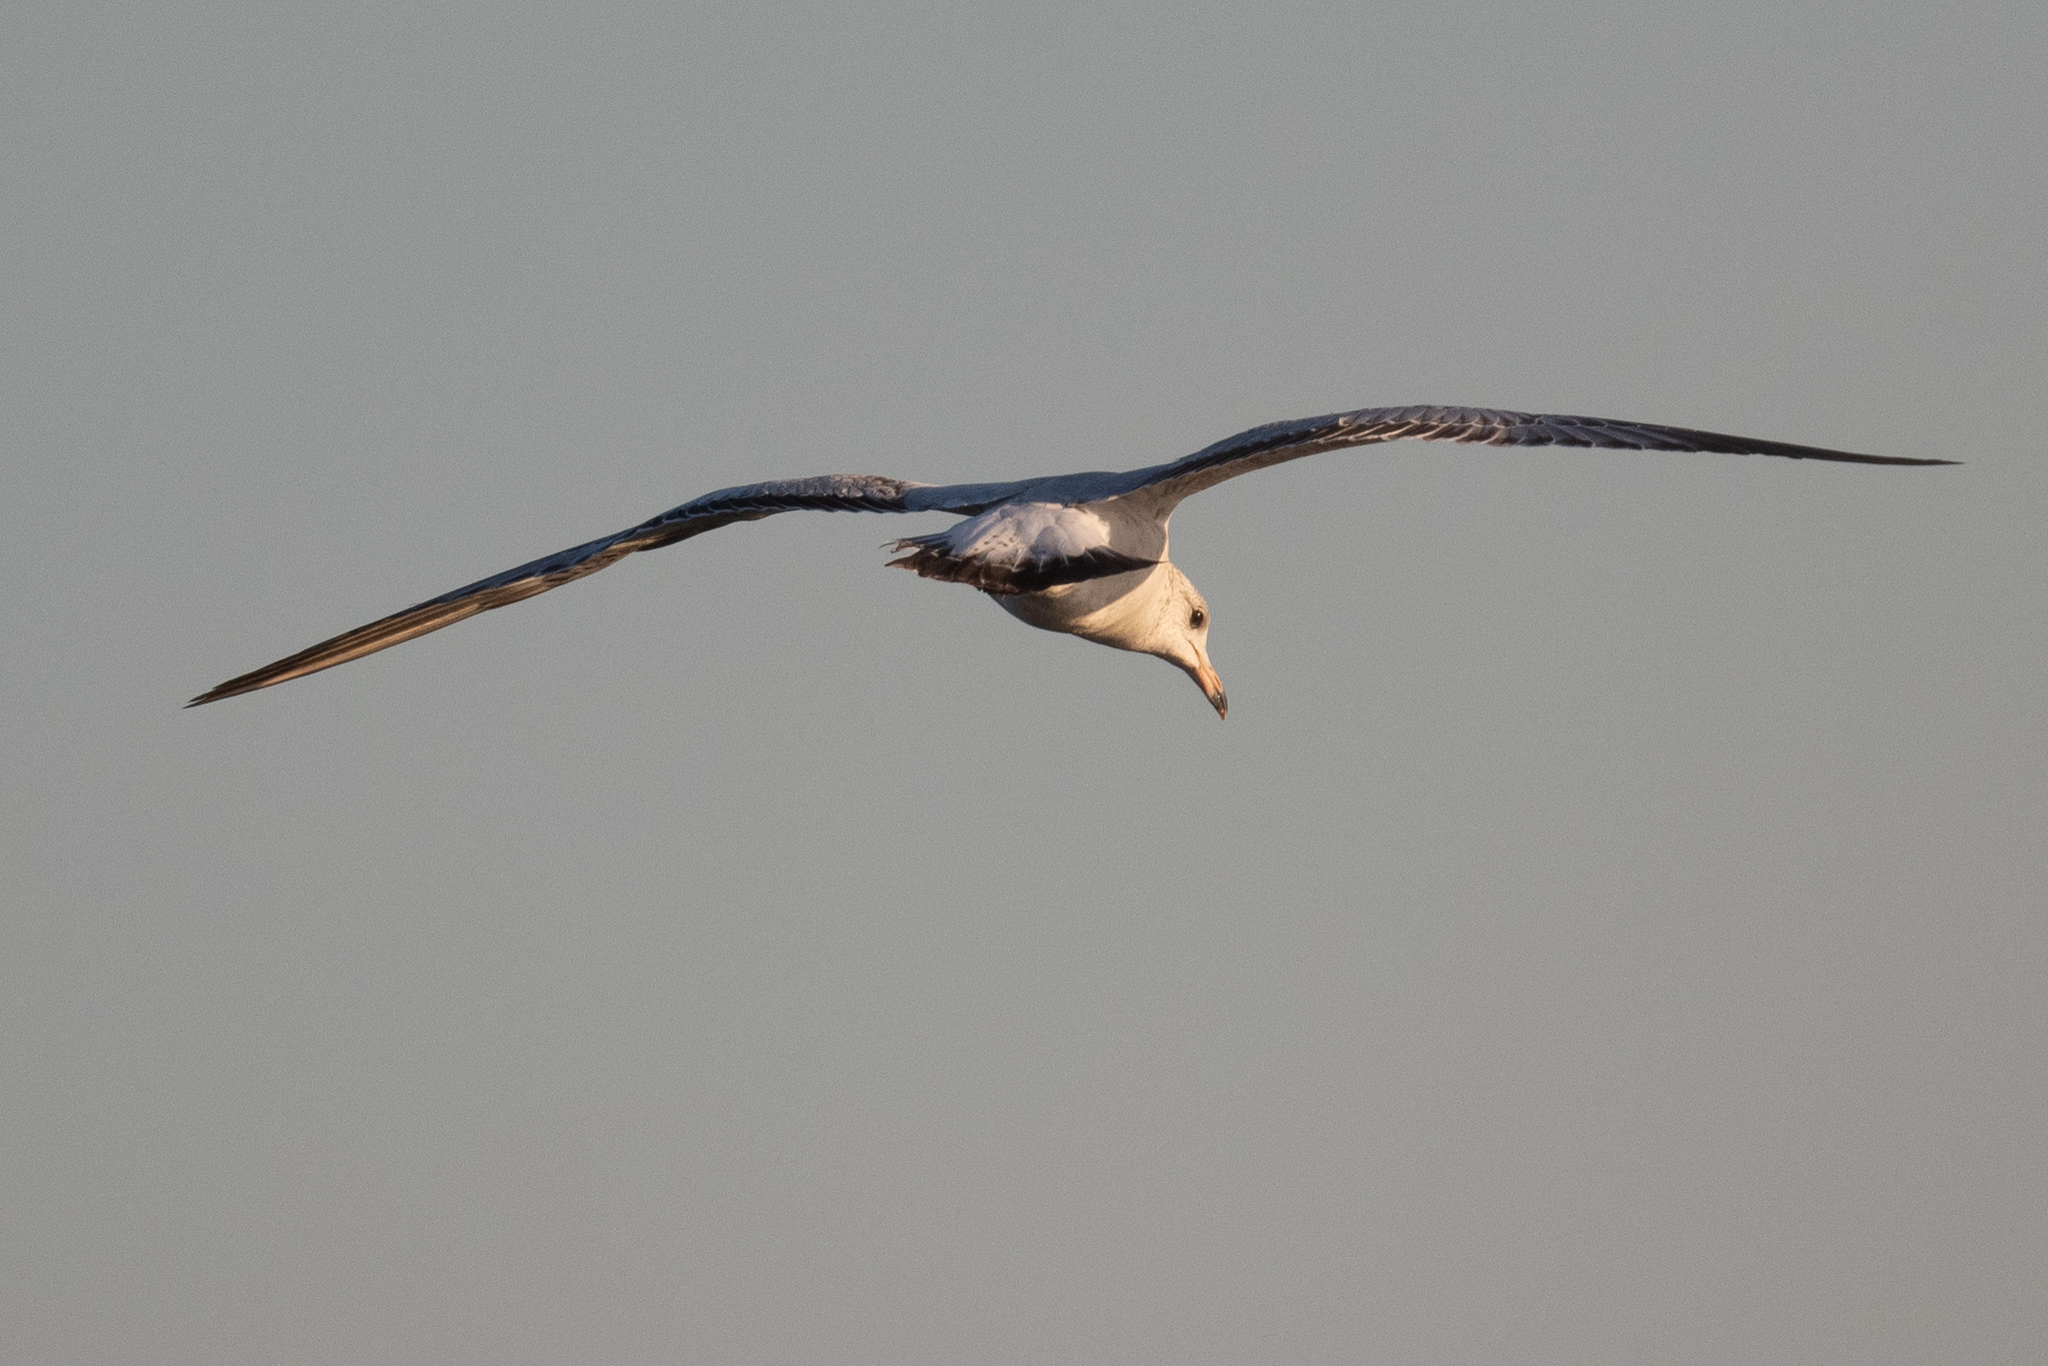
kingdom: Animalia
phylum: Chordata
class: Aves
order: Charadriiformes
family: Laridae
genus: Larus
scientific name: Larus delawarensis
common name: Ring-billed gull
